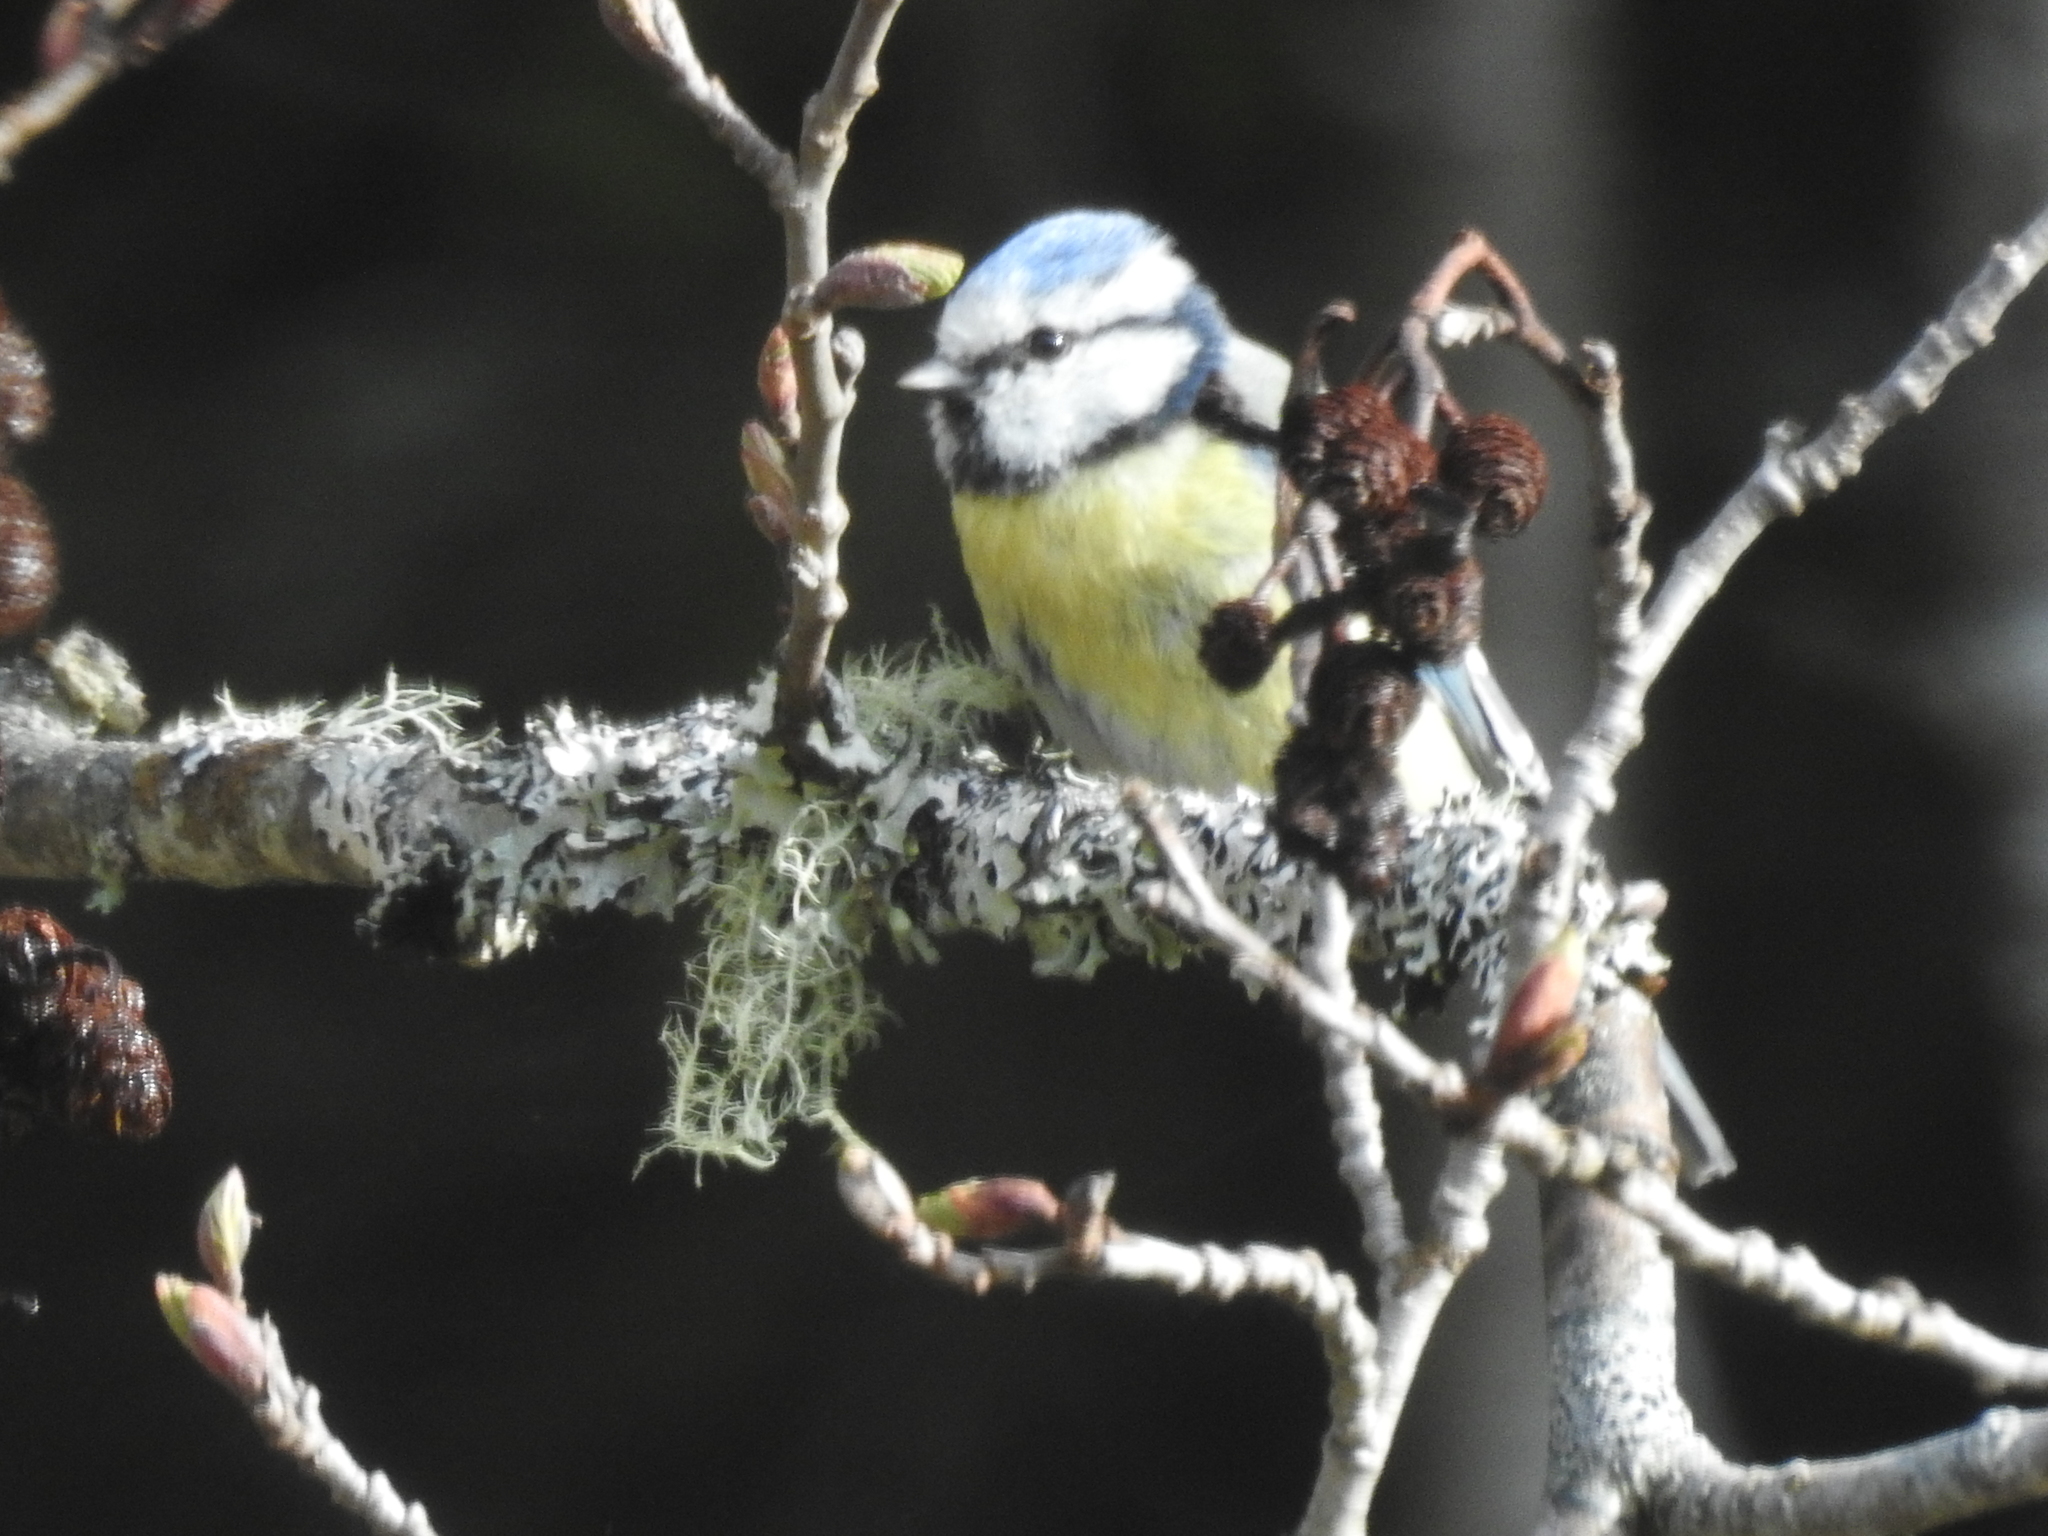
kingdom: Animalia
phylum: Chordata
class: Aves
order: Passeriformes
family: Paridae
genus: Cyanistes
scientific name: Cyanistes caeruleus
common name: Eurasian blue tit
